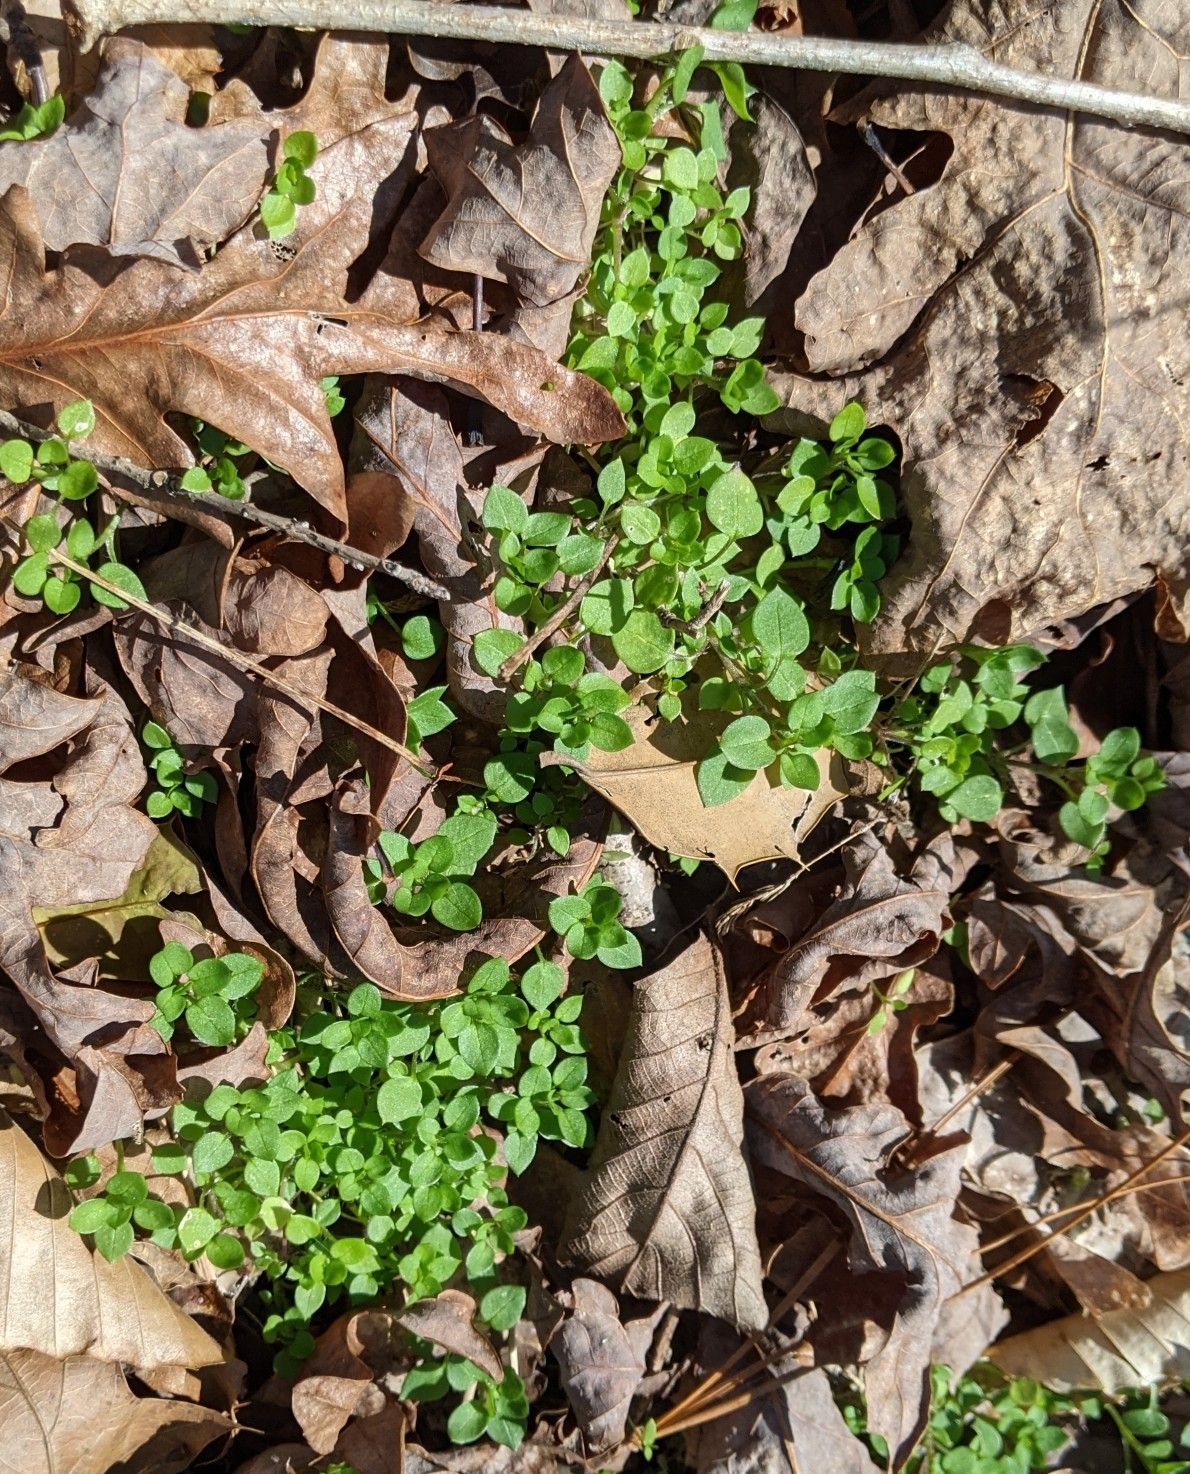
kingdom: Plantae
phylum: Tracheophyta
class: Magnoliopsida
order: Caryophyllales
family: Caryophyllaceae
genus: Stellaria
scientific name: Stellaria media
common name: Common chickweed
